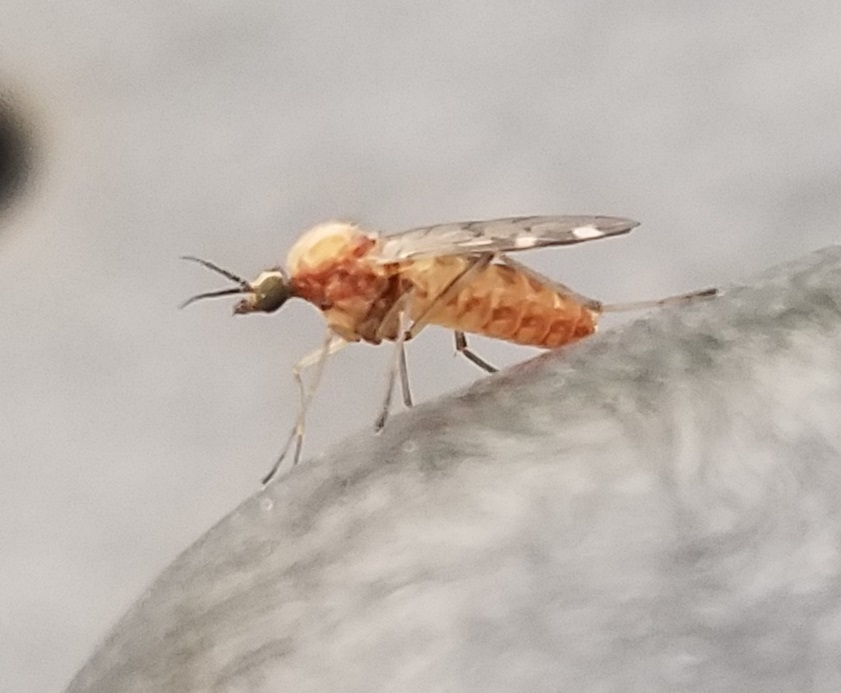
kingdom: Animalia
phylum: Arthropoda
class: Insecta
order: Diptera
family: Anisopodidae
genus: Sylvicola
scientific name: Sylvicola alternata
